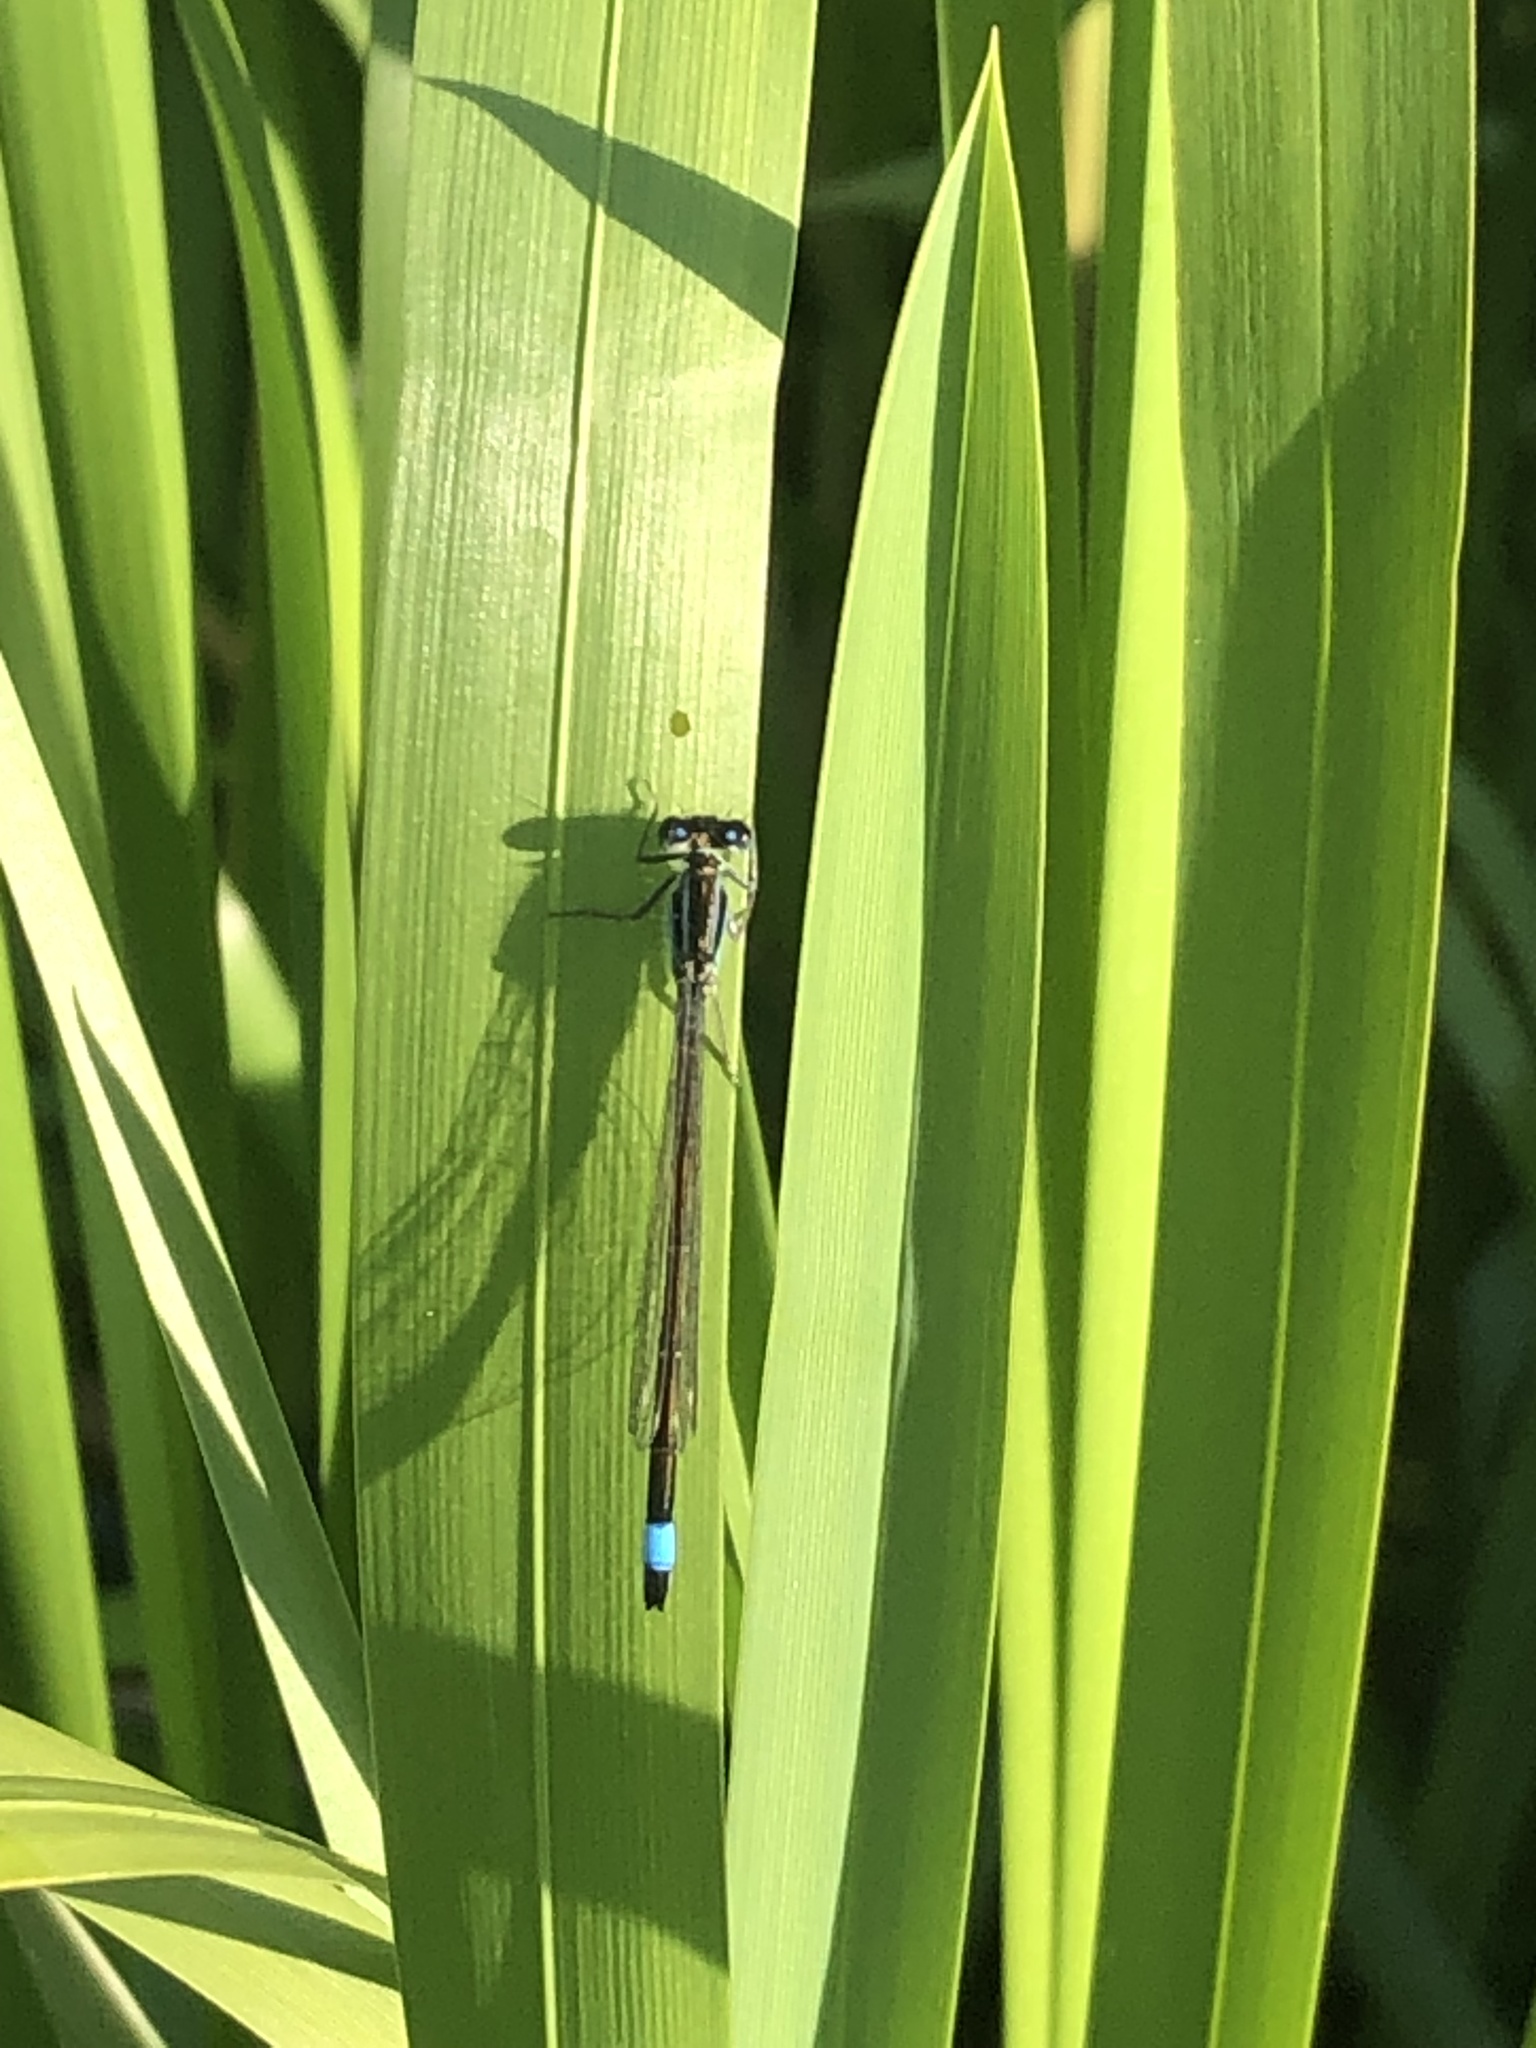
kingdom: Animalia
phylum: Arthropoda
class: Insecta
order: Odonata
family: Coenagrionidae
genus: Ischnura
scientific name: Ischnura elegans
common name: Blue-tailed damselfly
